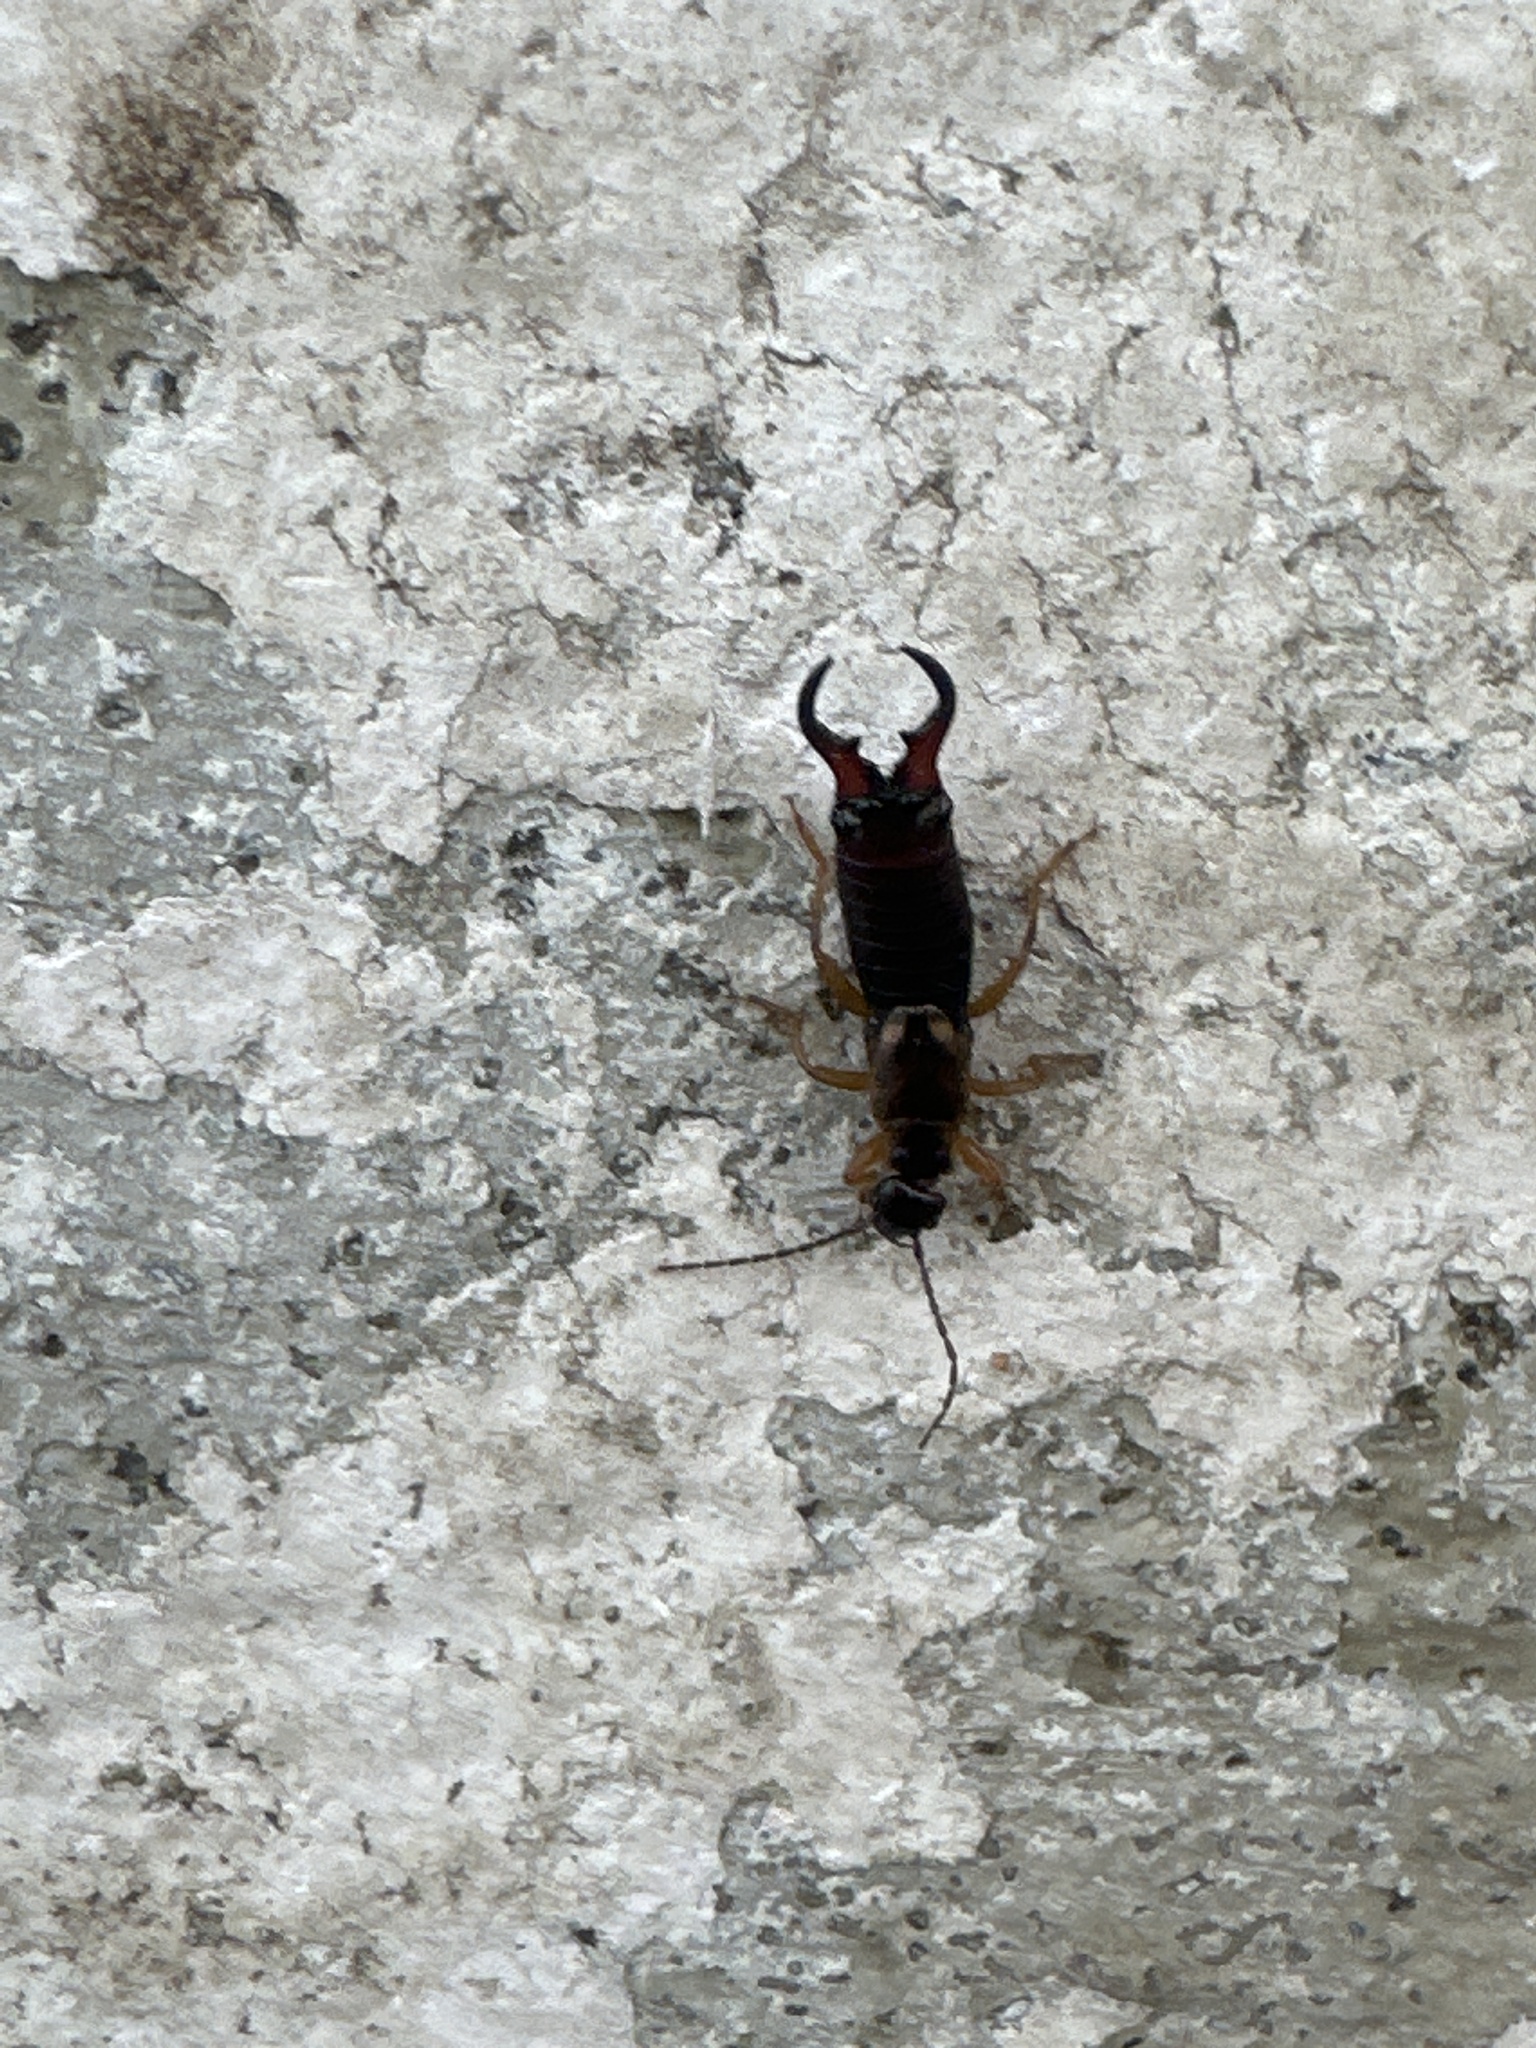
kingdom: Animalia
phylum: Arthropoda
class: Insecta
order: Dermaptera
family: Forficulidae
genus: Forficula
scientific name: Forficula auricularia
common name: European earwig
